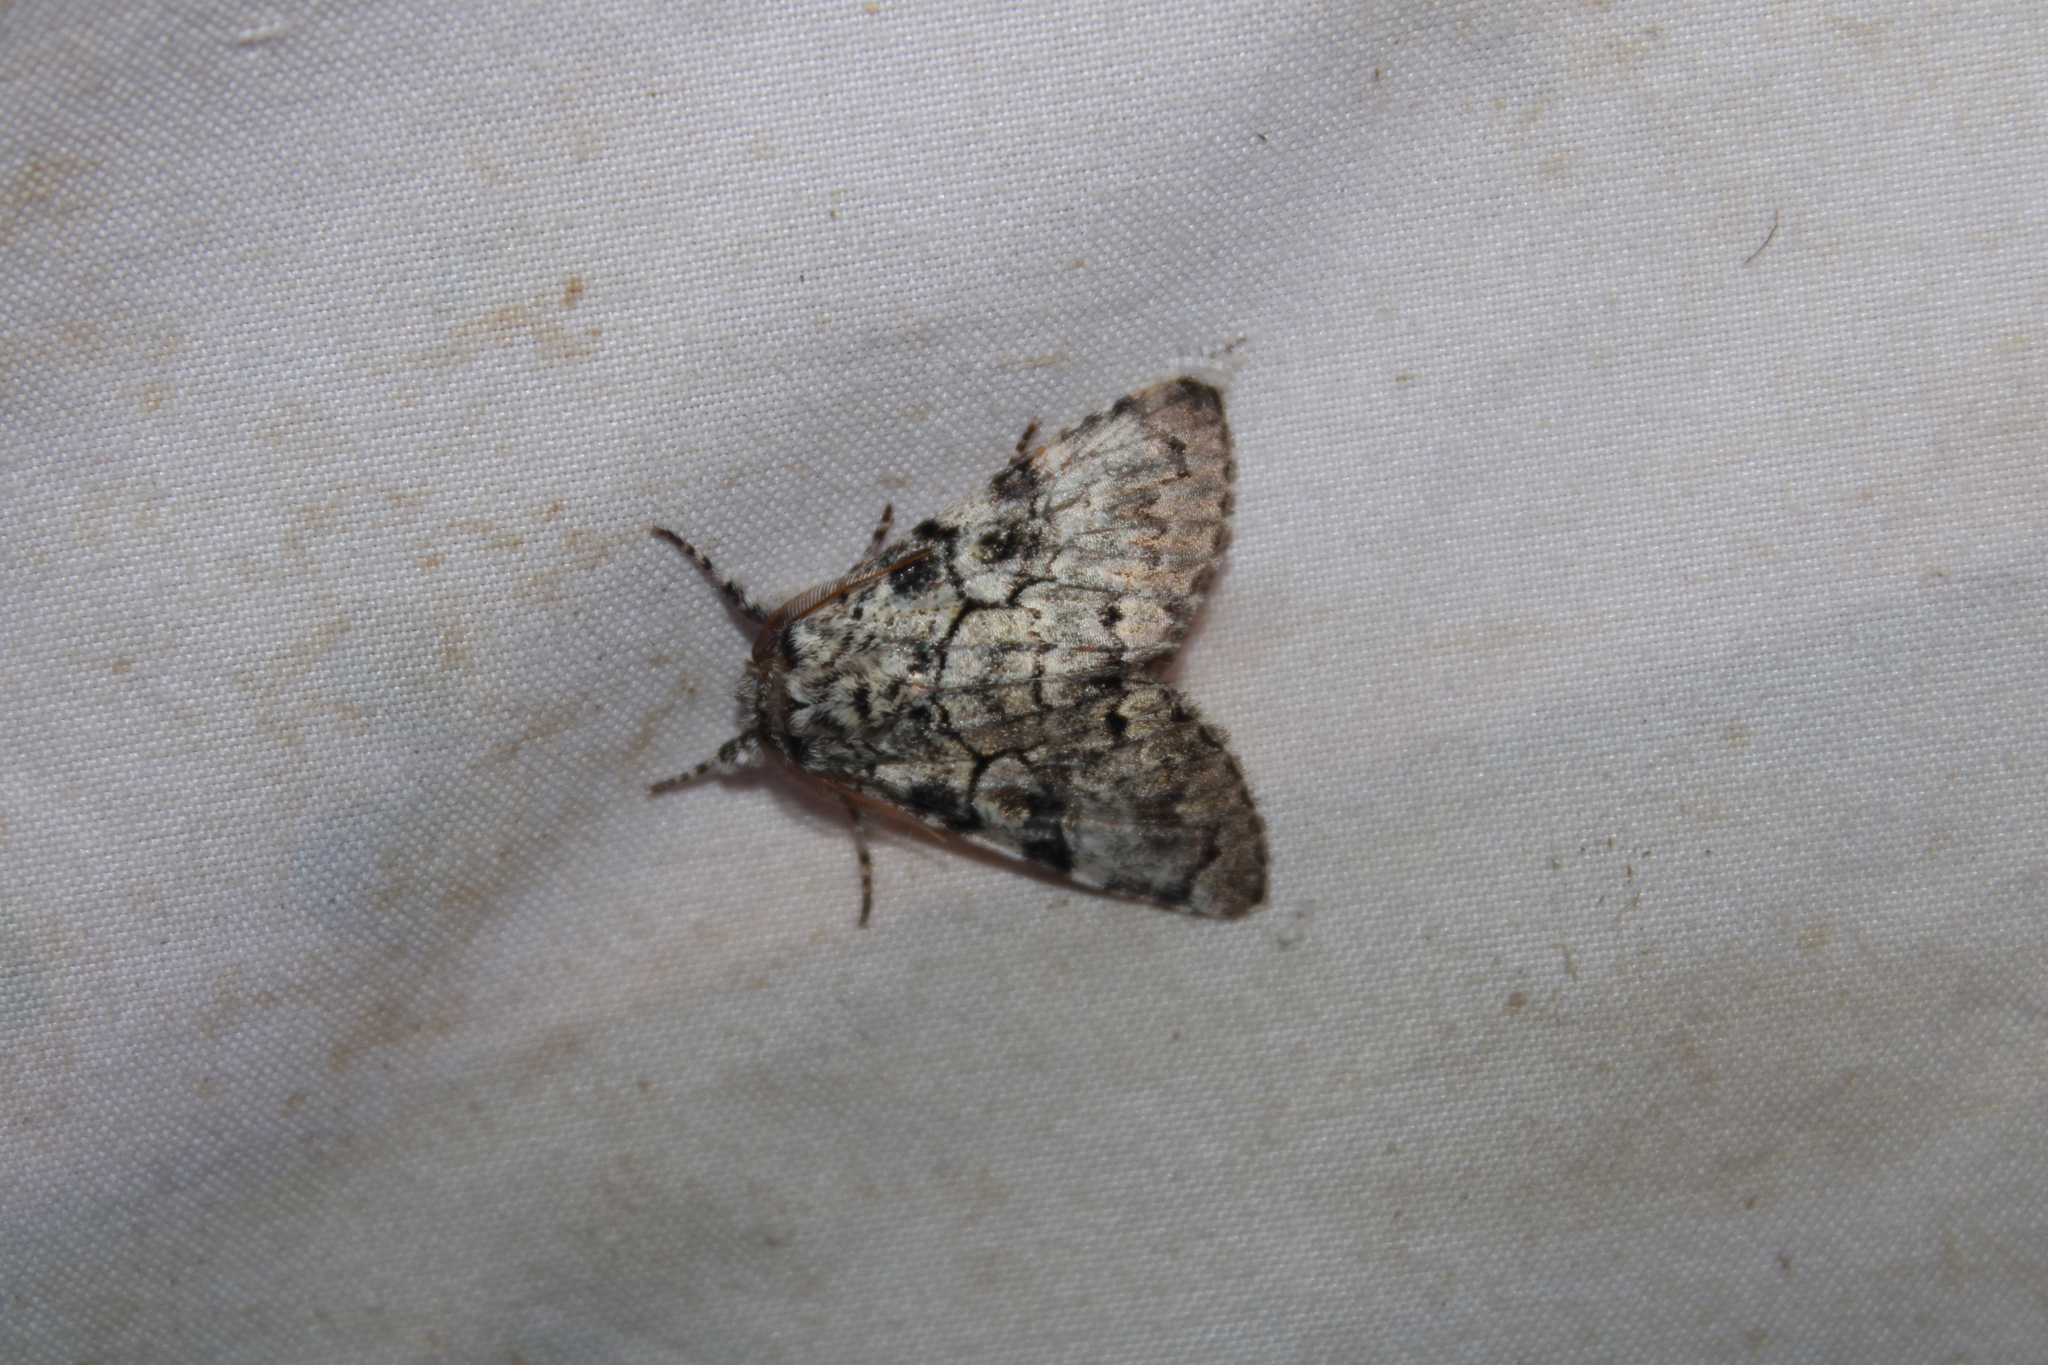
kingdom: Animalia
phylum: Arthropoda
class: Insecta
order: Lepidoptera
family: Noctuidae
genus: Charadra
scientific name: Charadra deridens
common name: Marbled tuffet
